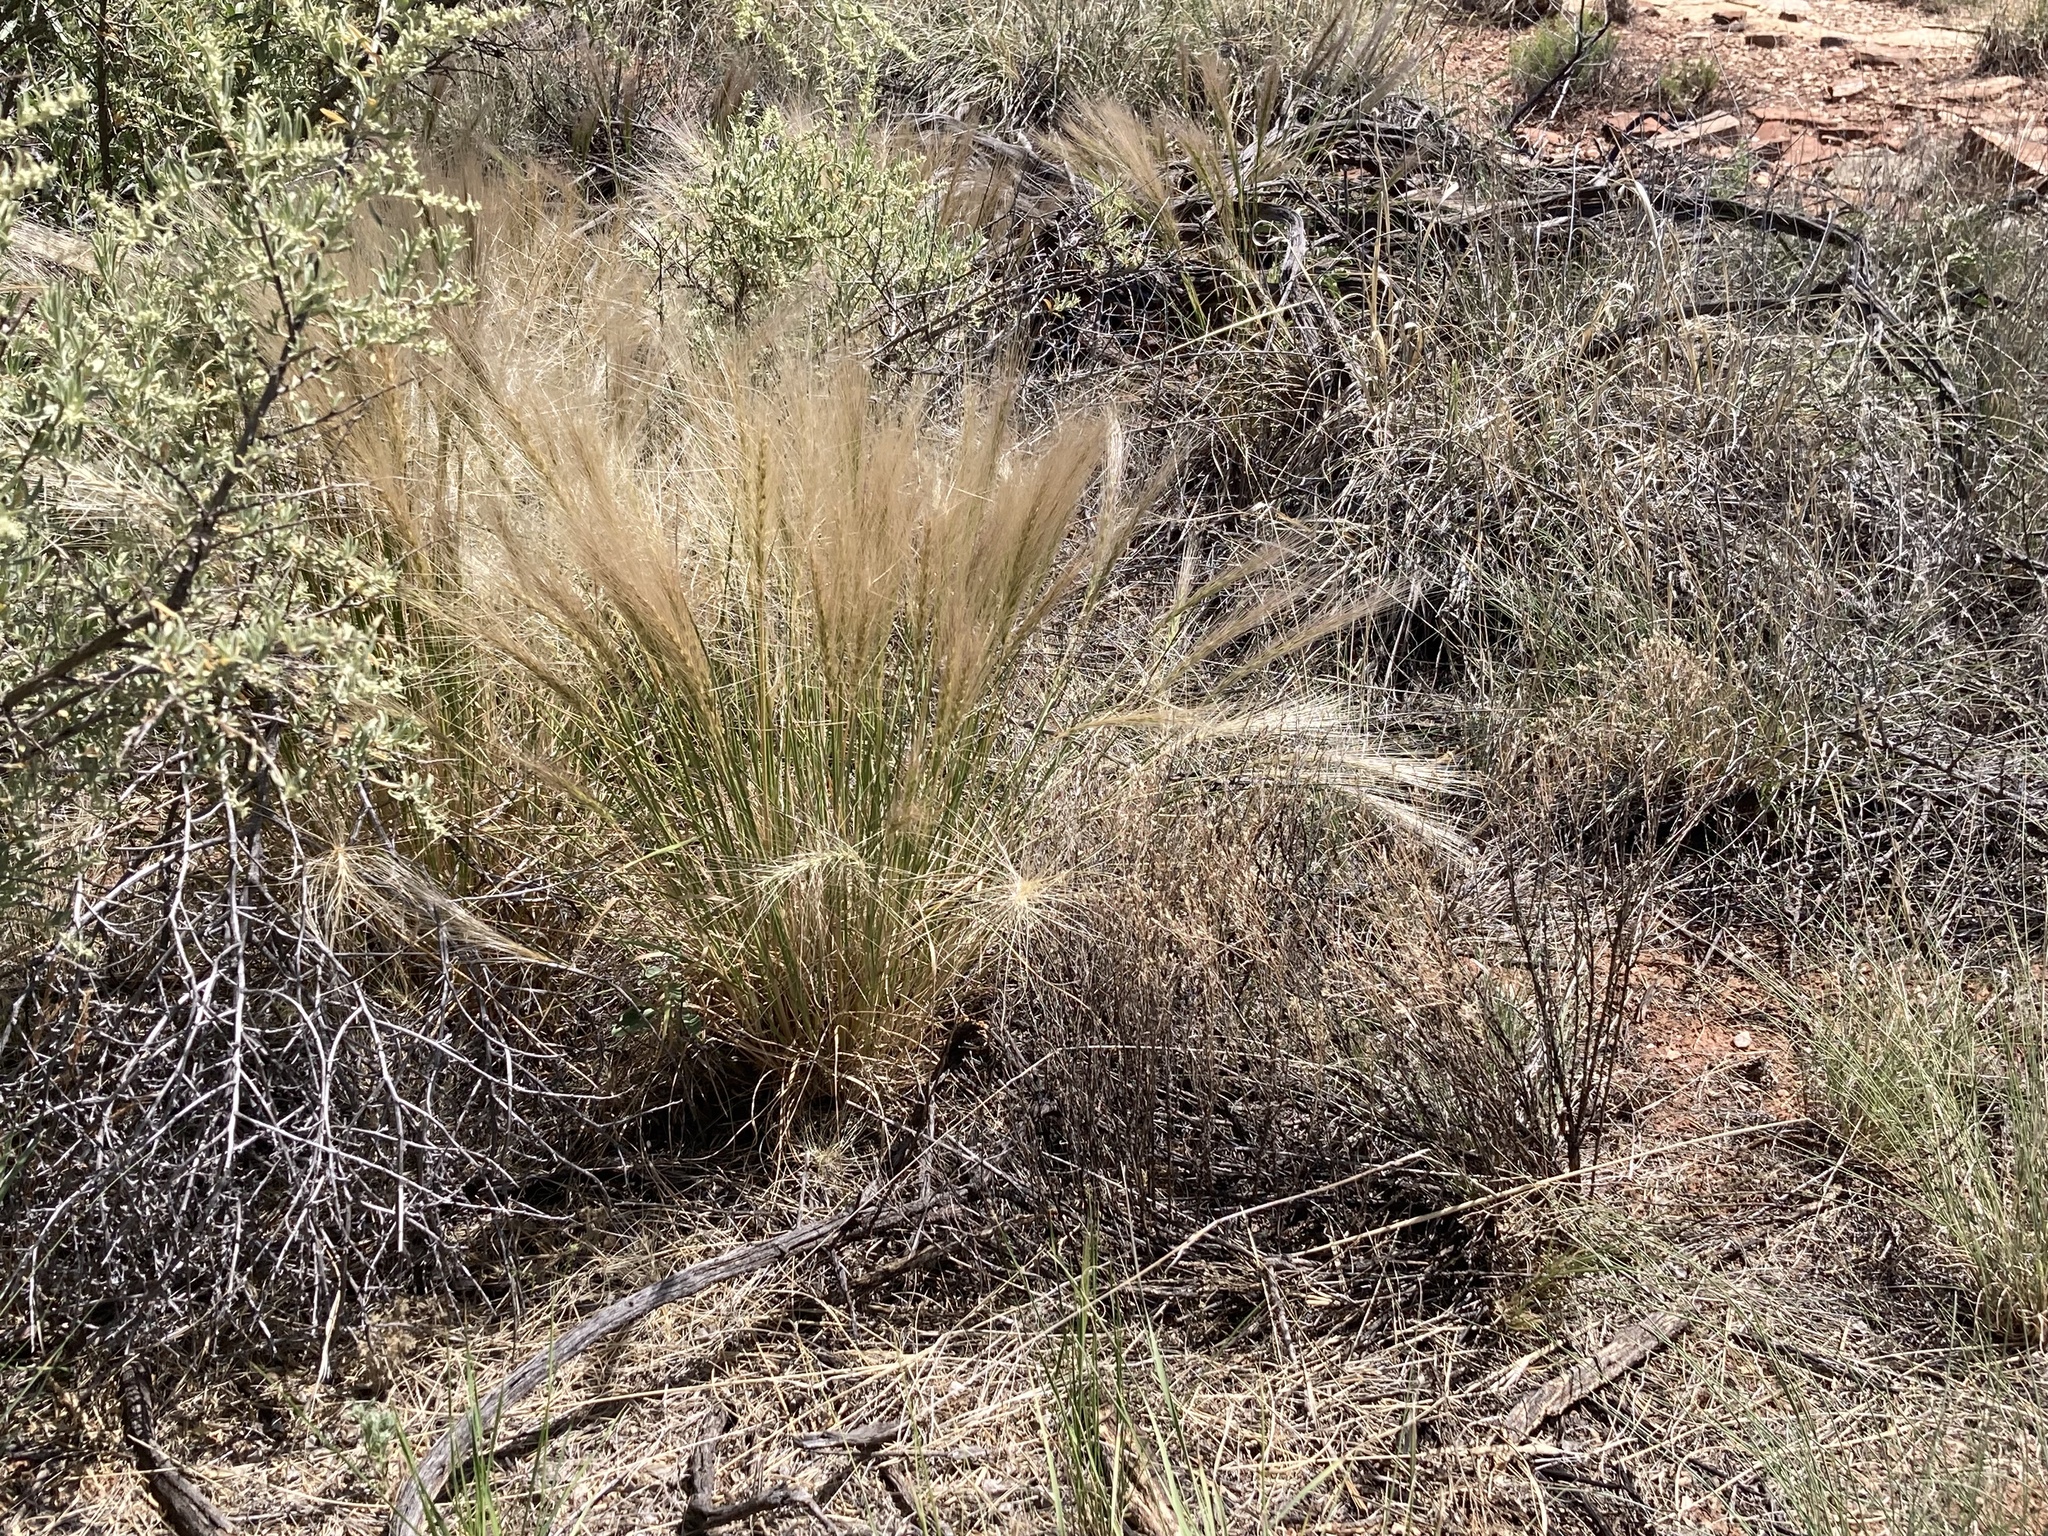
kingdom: Plantae
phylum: Tracheophyta
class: Liliopsida
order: Poales
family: Poaceae
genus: Hordeum
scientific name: Hordeum jubatum
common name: Foxtail barley
